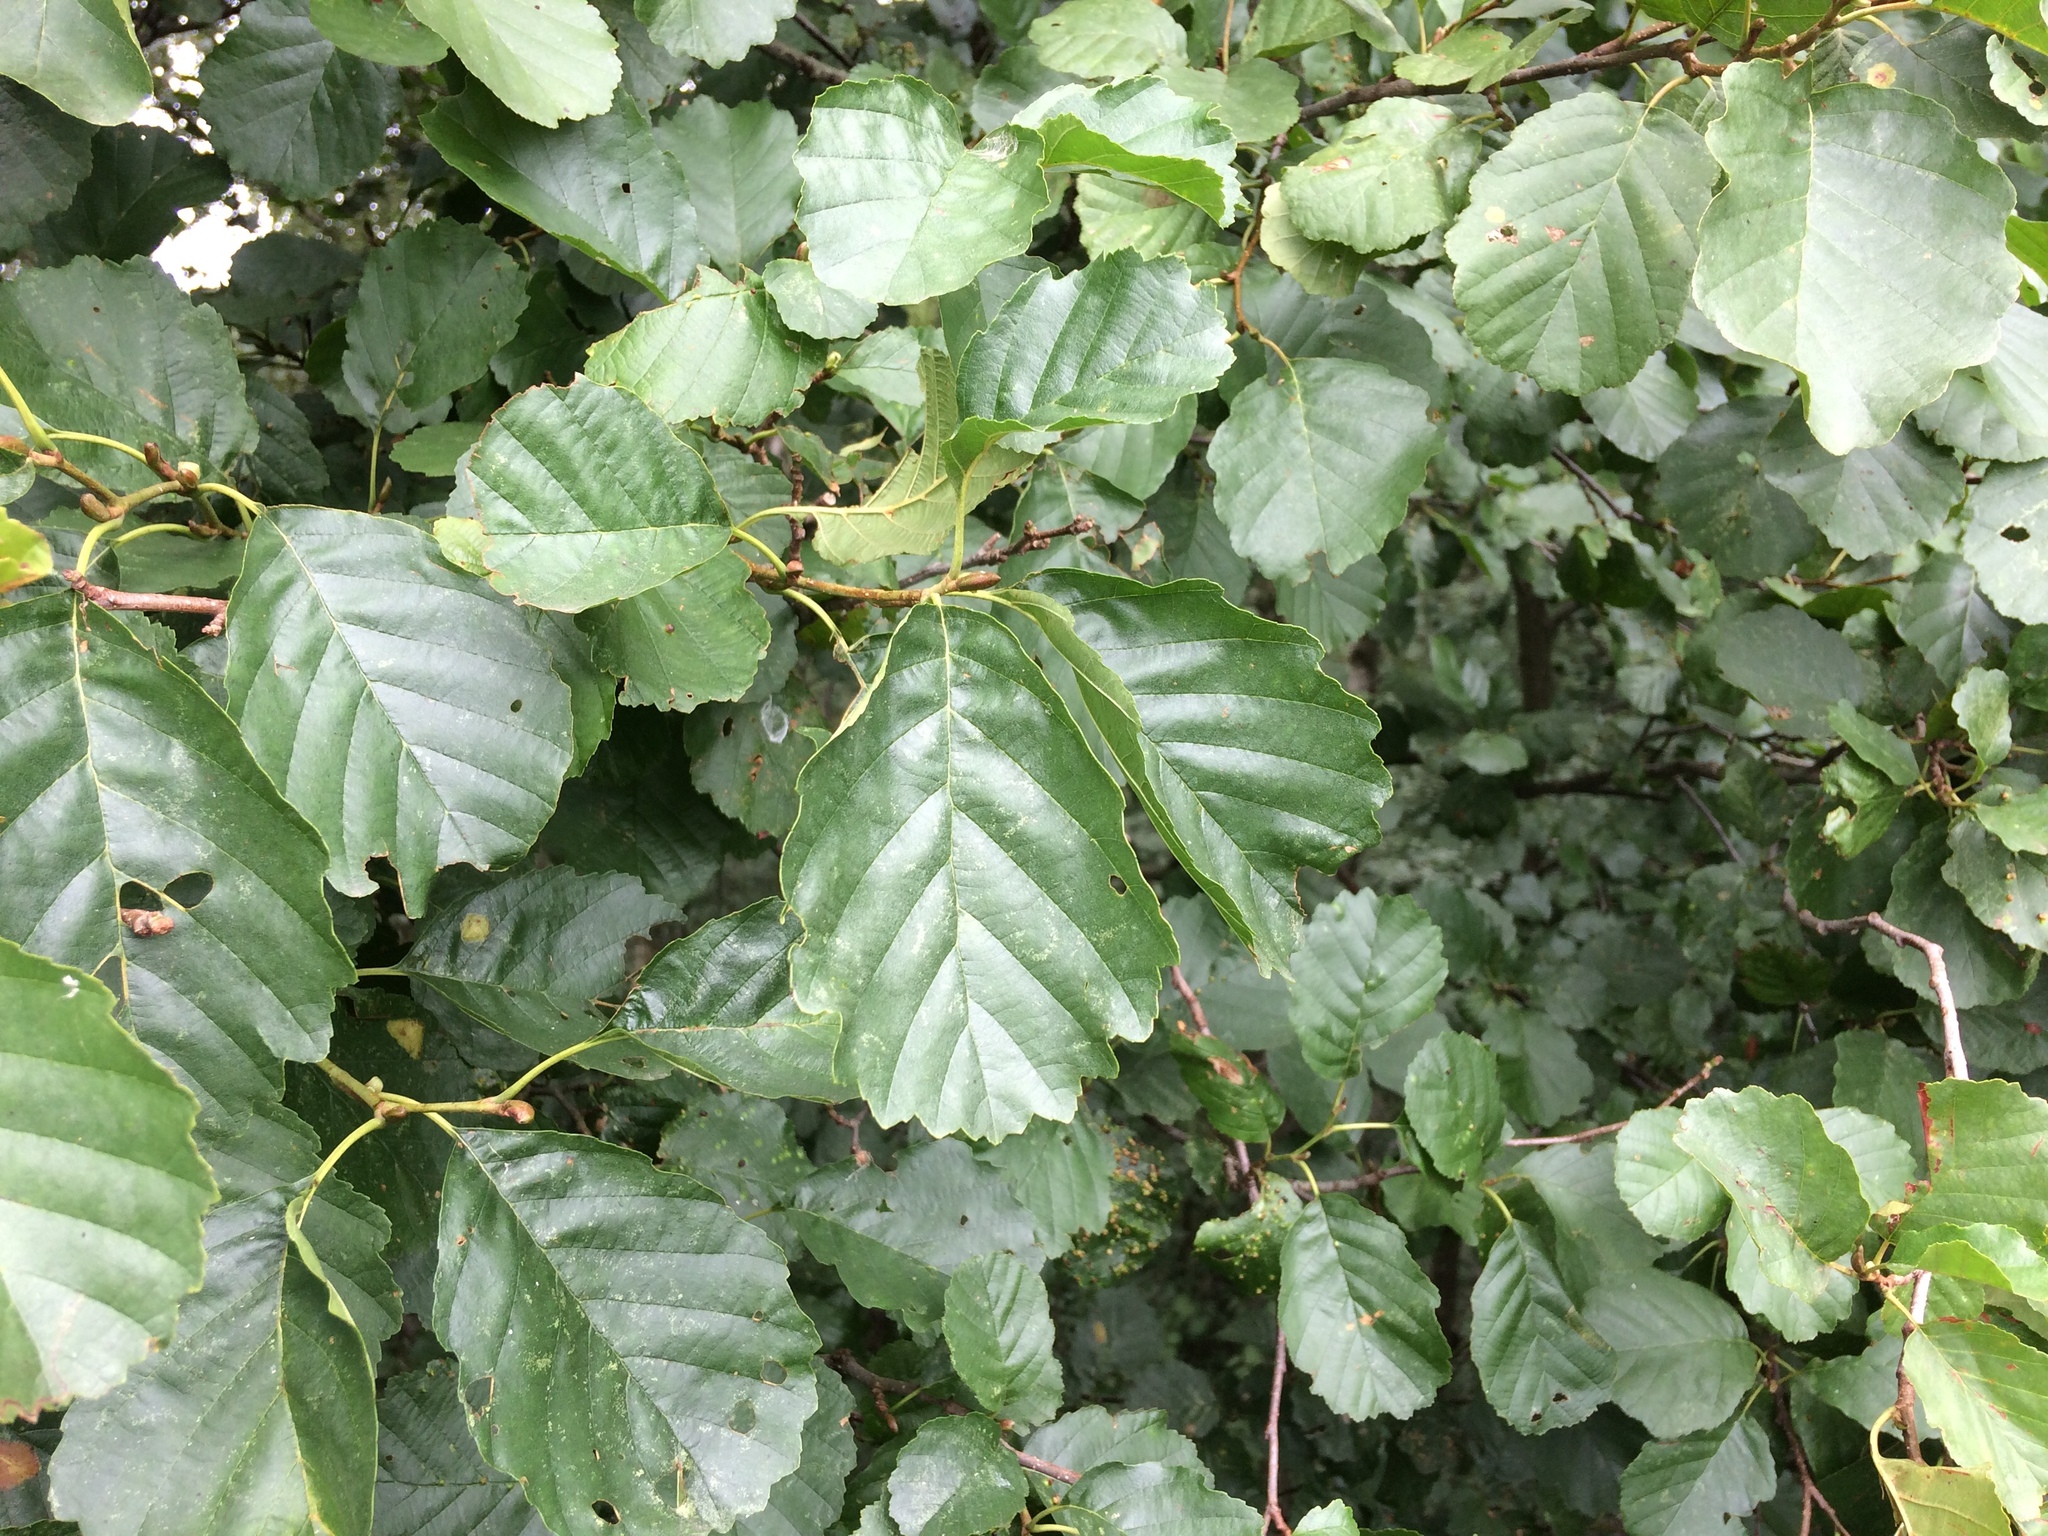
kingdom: Plantae
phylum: Tracheophyta
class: Magnoliopsida
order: Fagales
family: Betulaceae
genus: Alnus
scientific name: Alnus glutinosa
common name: Black alder
